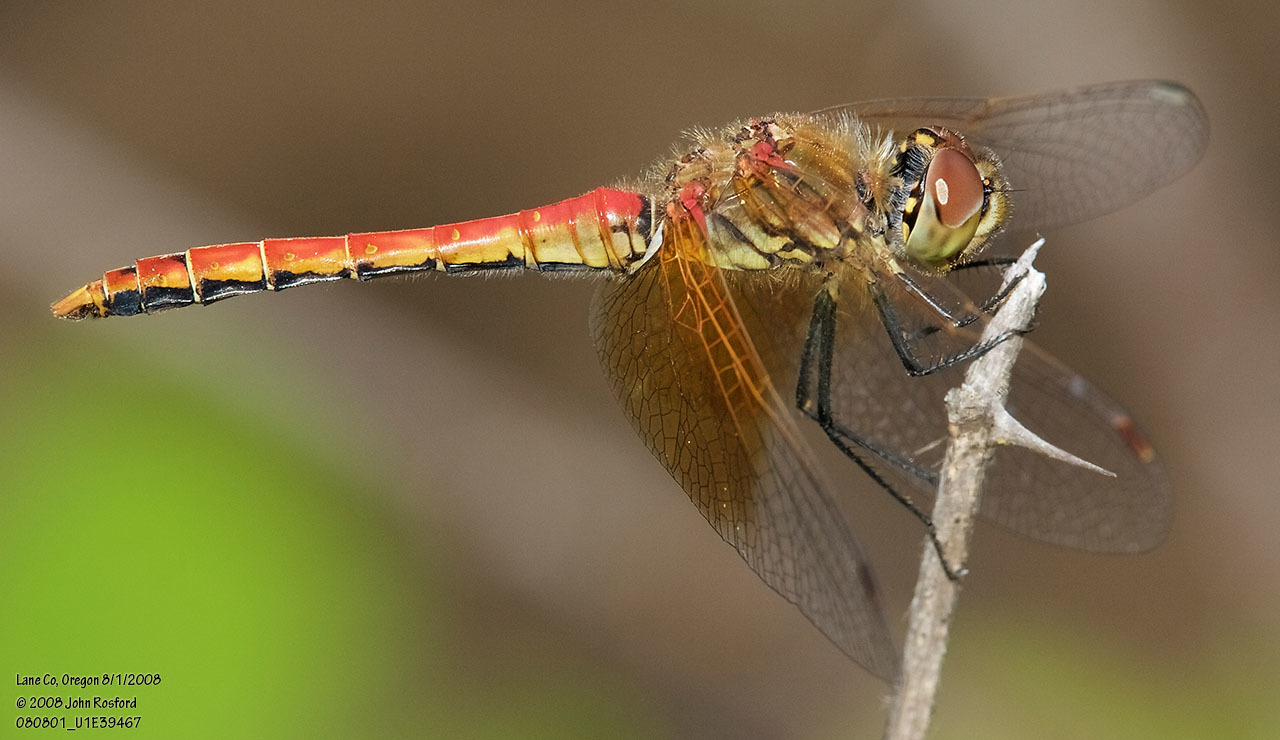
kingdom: Animalia
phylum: Arthropoda
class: Insecta
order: Odonata
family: Libellulidae
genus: Sympetrum
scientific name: Sympetrum semicinctum
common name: Band-winged meadowhawk
